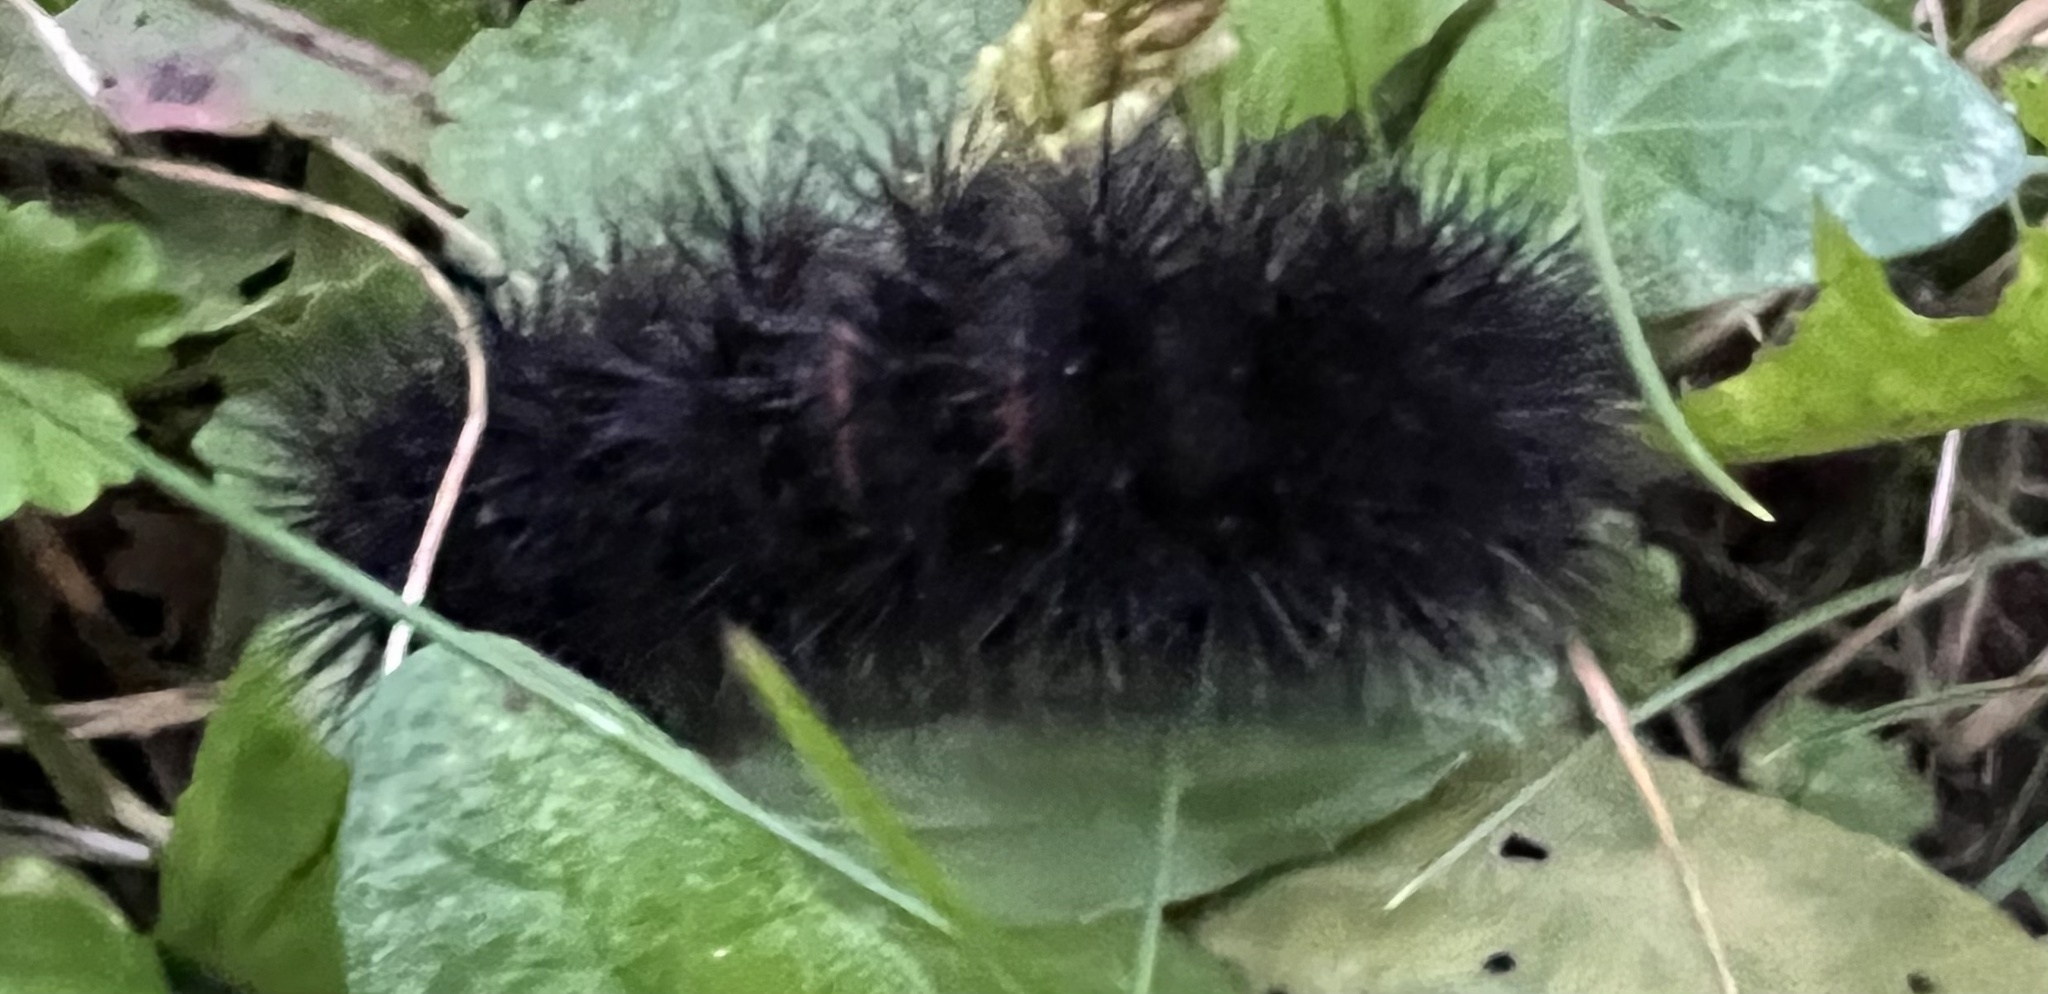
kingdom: Animalia
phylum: Arthropoda
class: Insecta
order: Lepidoptera
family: Erebidae
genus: Hypercompe
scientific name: Hypercompe scribonia
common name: Giant leopard moth
